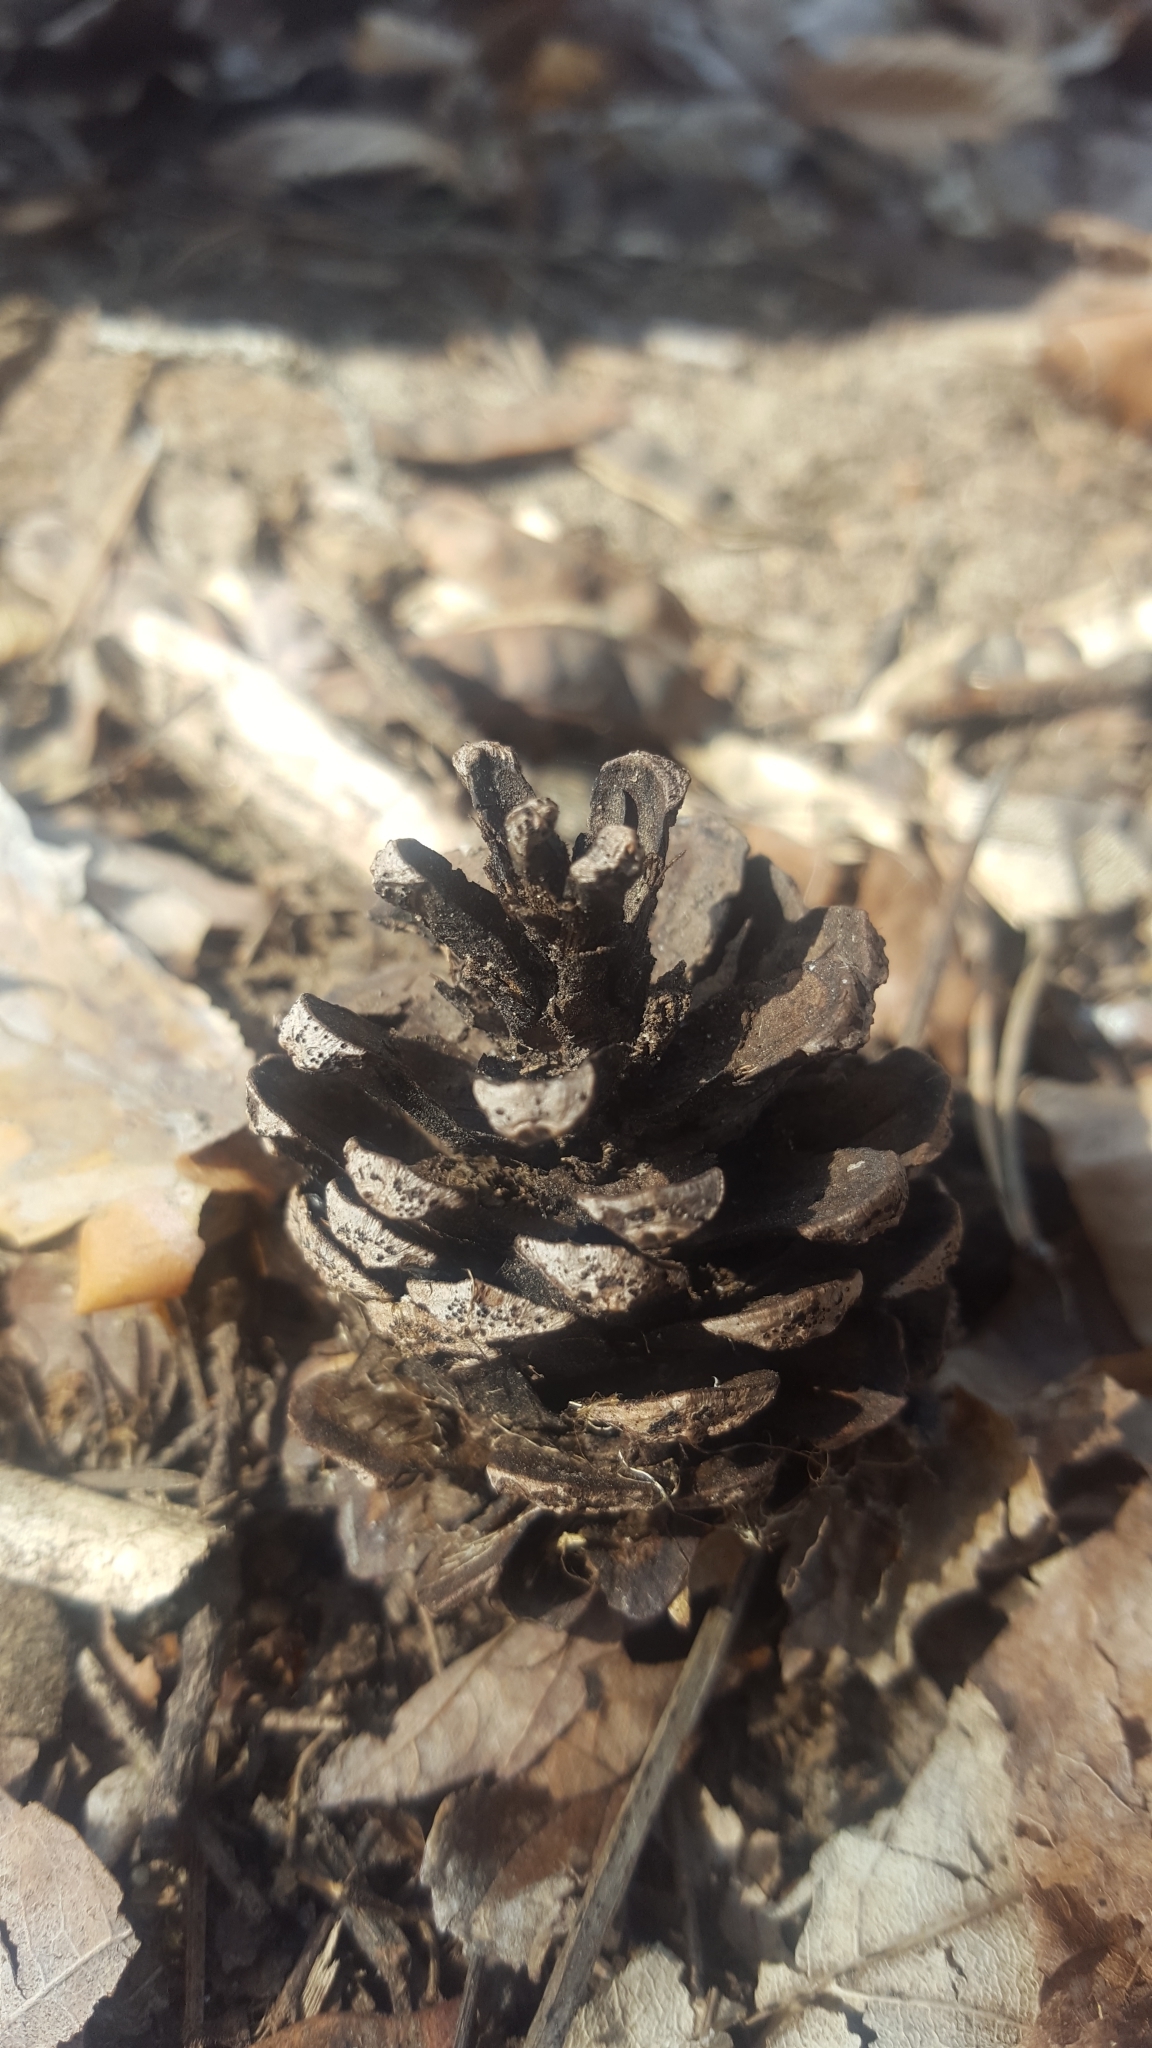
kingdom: Plantae
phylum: Tracheophyta
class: Pinopsida
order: Pinales
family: Pinaceae
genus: Pinus
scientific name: Pinus sylvestris
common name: Scots pine
